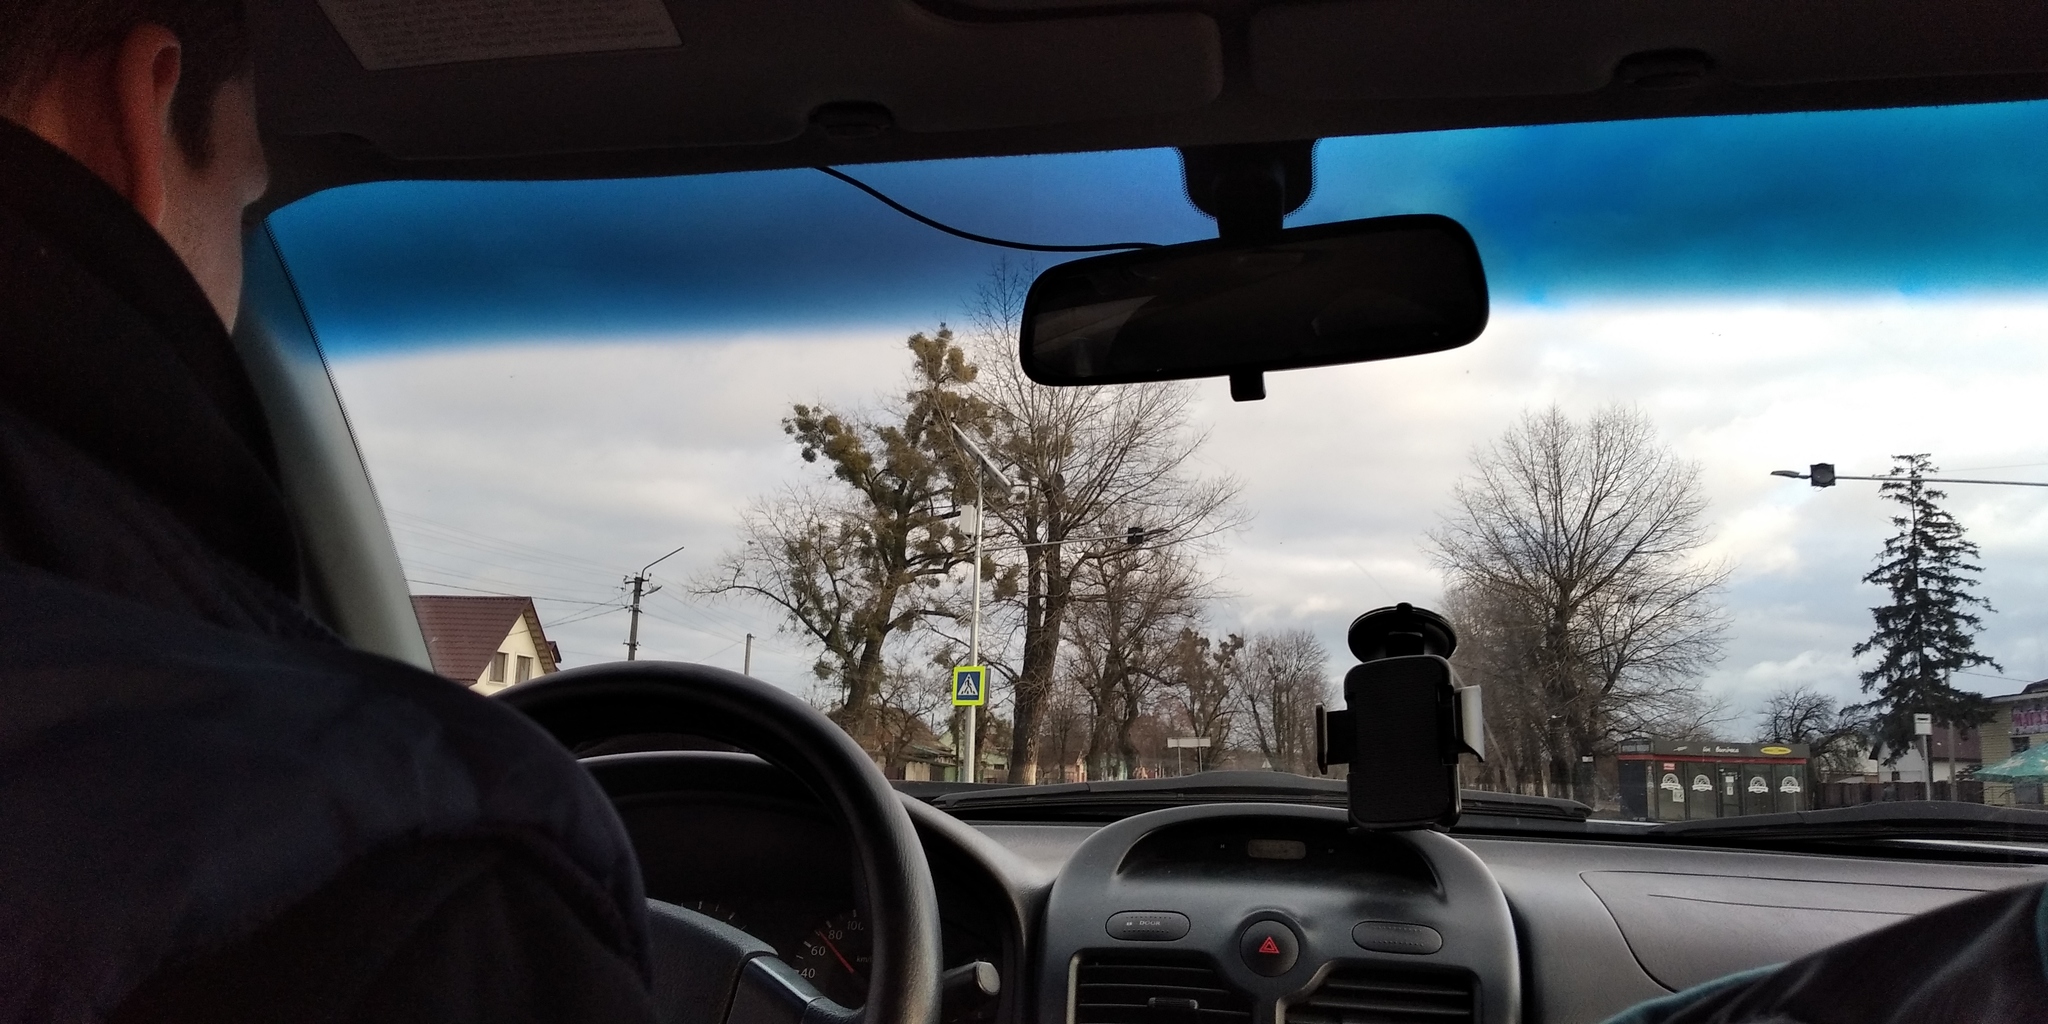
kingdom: Plantae
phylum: Tracheophyta
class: Magnoliopsida
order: Santalales
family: Viscaceae
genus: Viscum
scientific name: Viscum album
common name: Mistletoe
